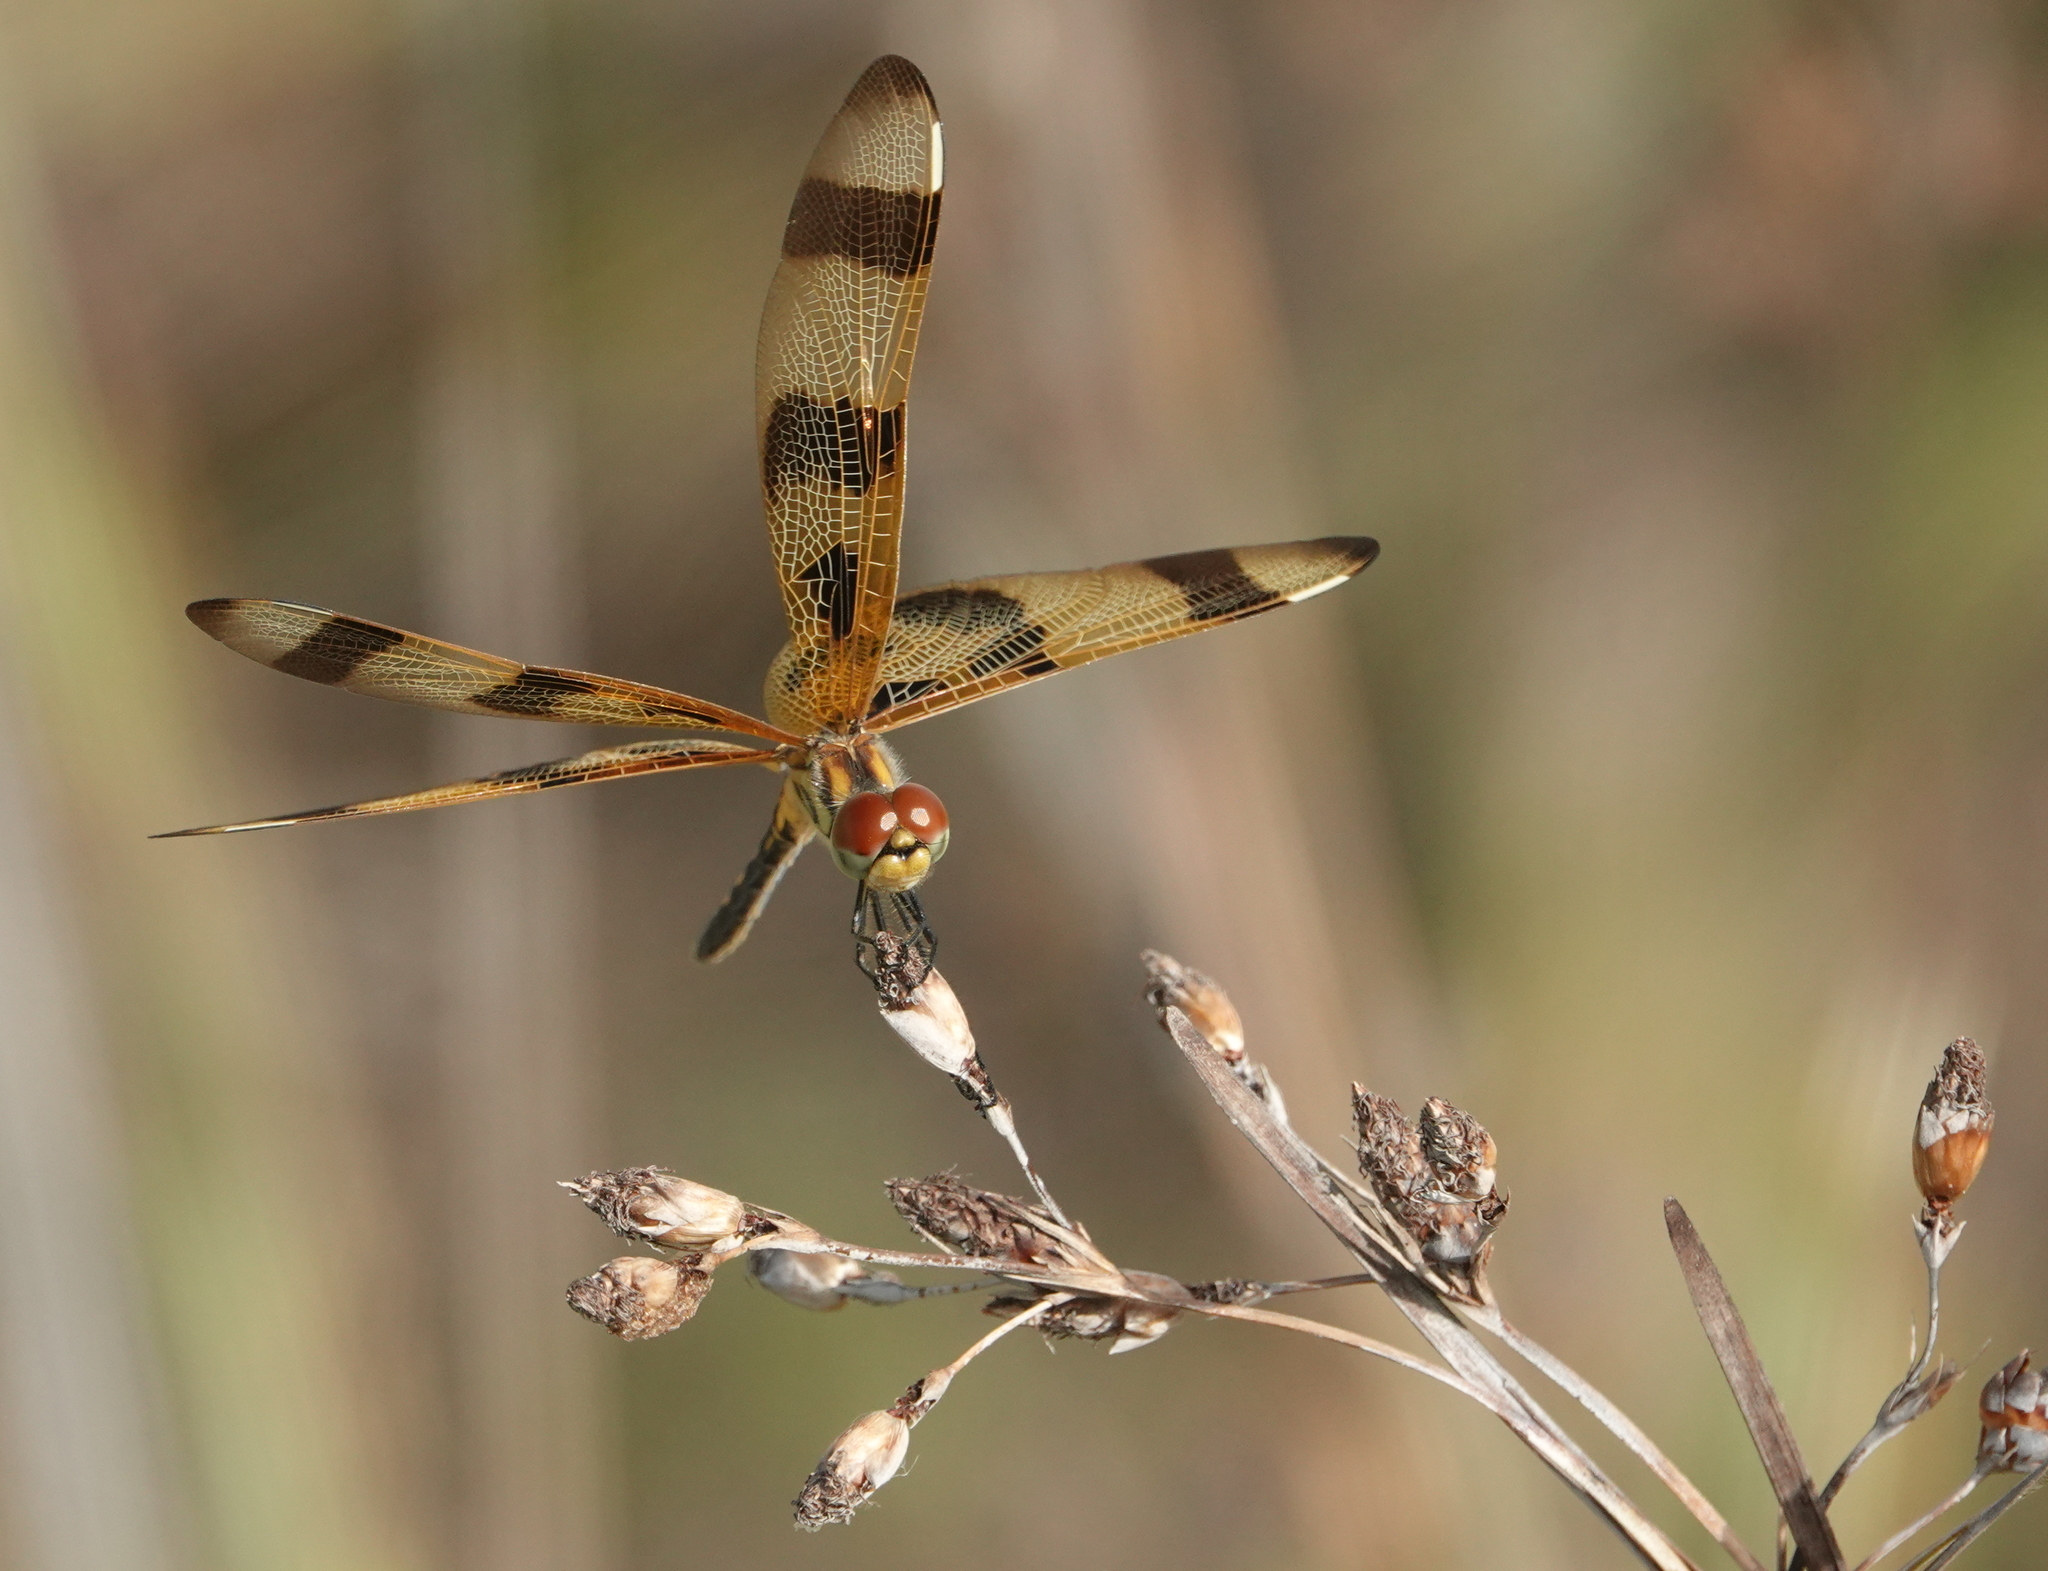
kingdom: Animalia
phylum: Arthropoda
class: Insecta
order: Odonata
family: Libellulidae
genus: Celithemis
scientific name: Celithemis eponina
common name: Halloween pennant
